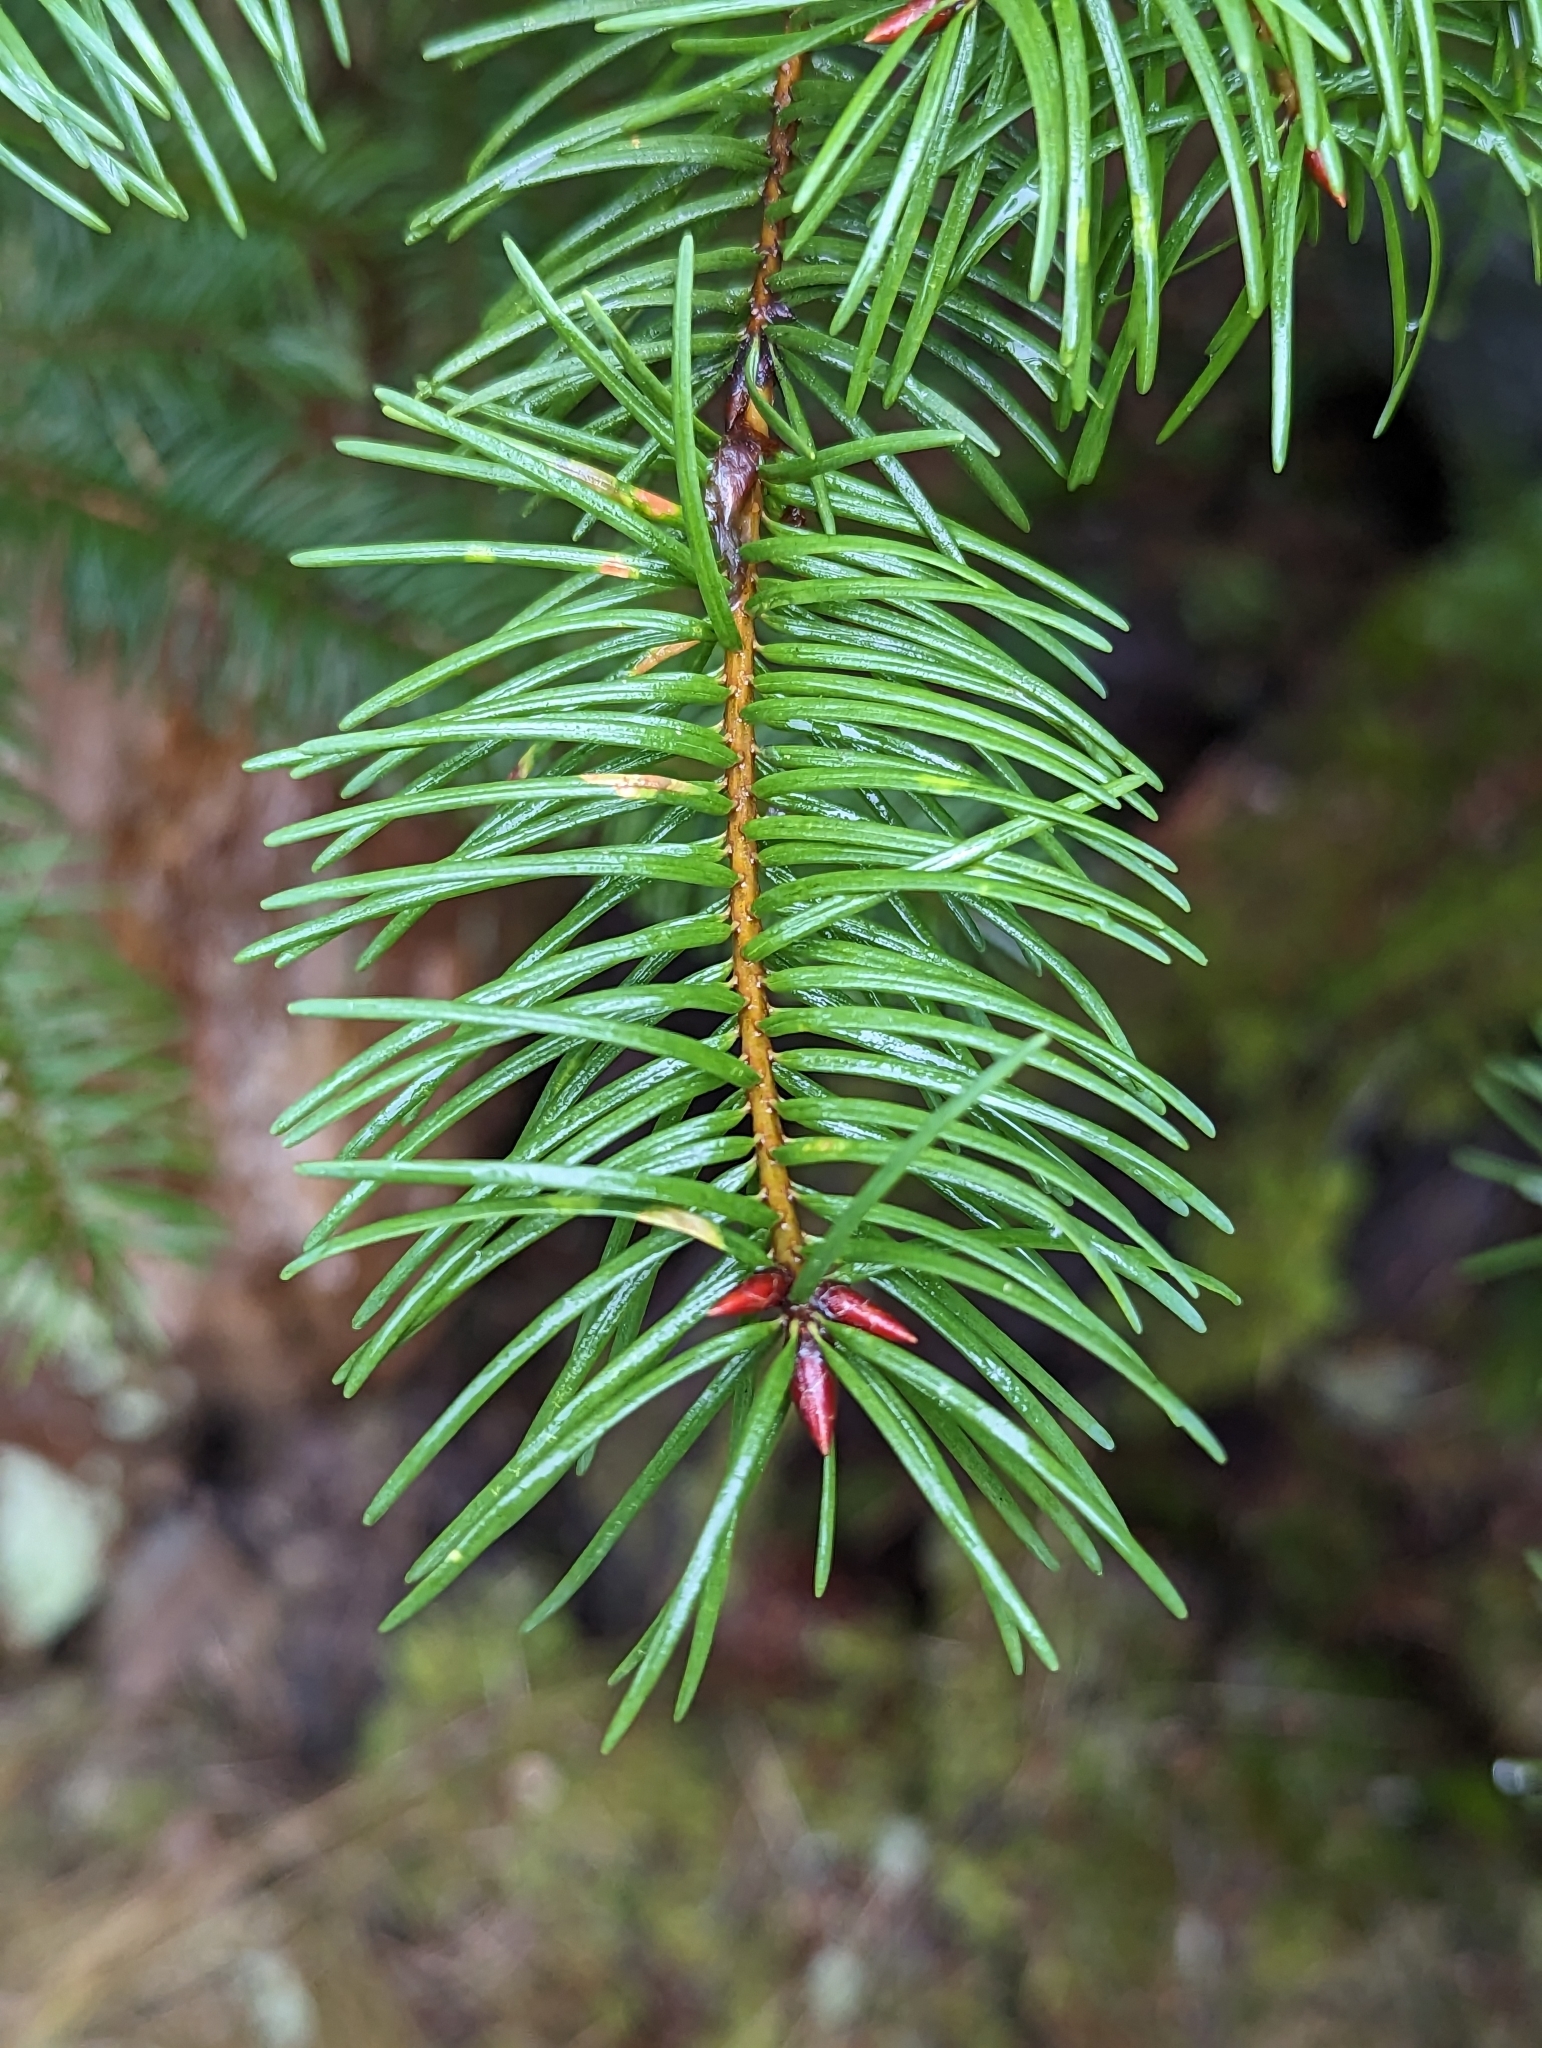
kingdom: Plantae
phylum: Tracheophyta
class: Pinopsida
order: Pinales
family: Pinaceae
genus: Pseudotsuga
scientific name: Pseudotsuga menziesii
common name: Douglas fir
